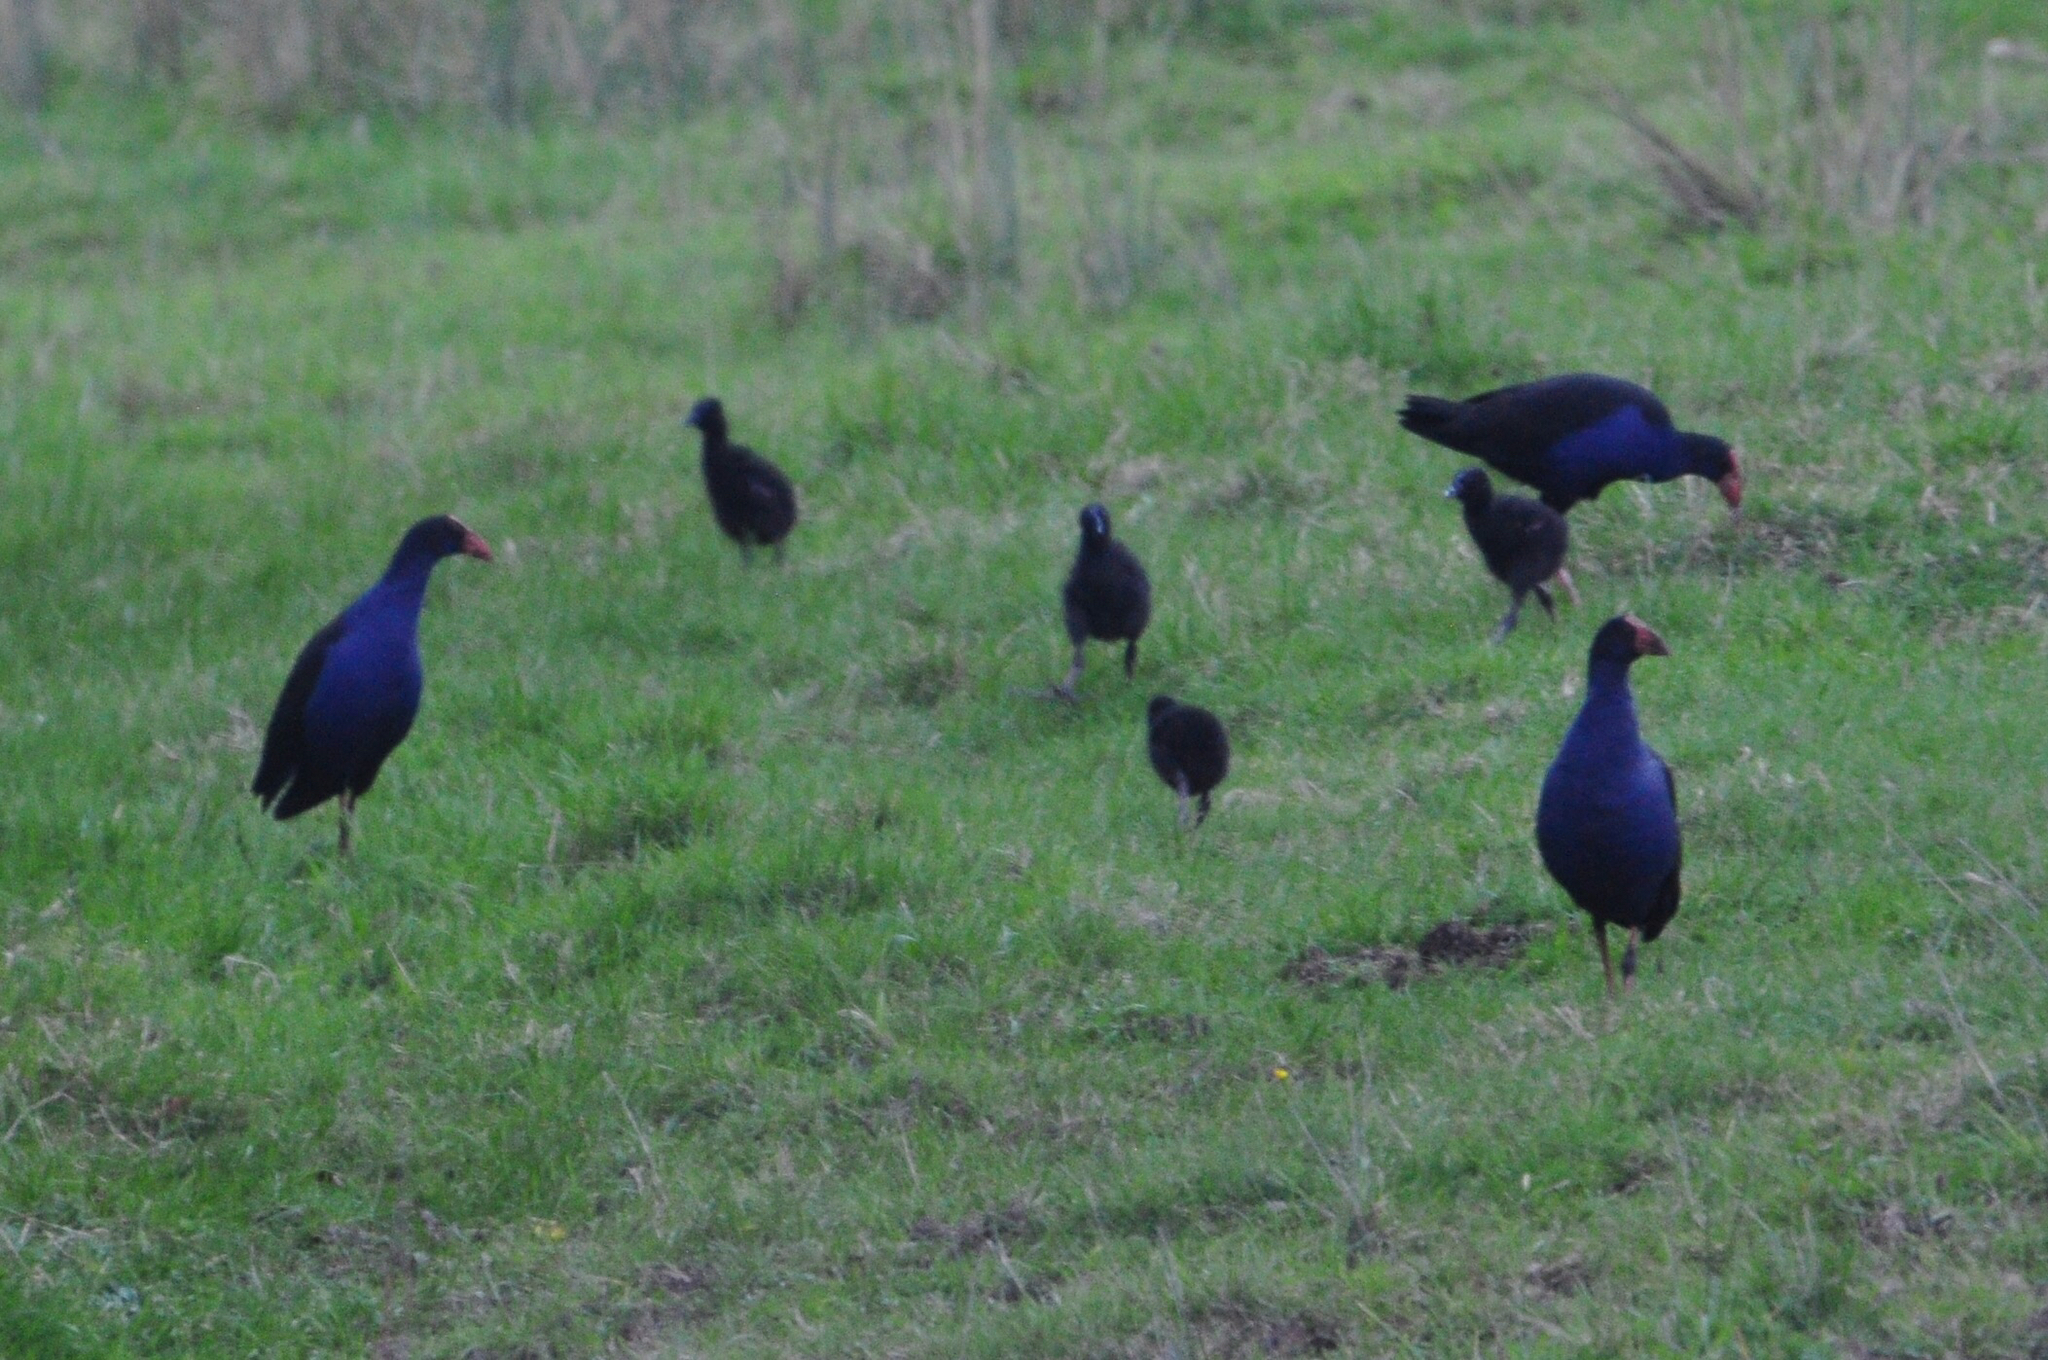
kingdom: Animalia
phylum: Chordata
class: Aves
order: Gruiformes
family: Rallidae
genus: Porphyrio
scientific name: Porphyrio melanotus
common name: Australasian swamphen
